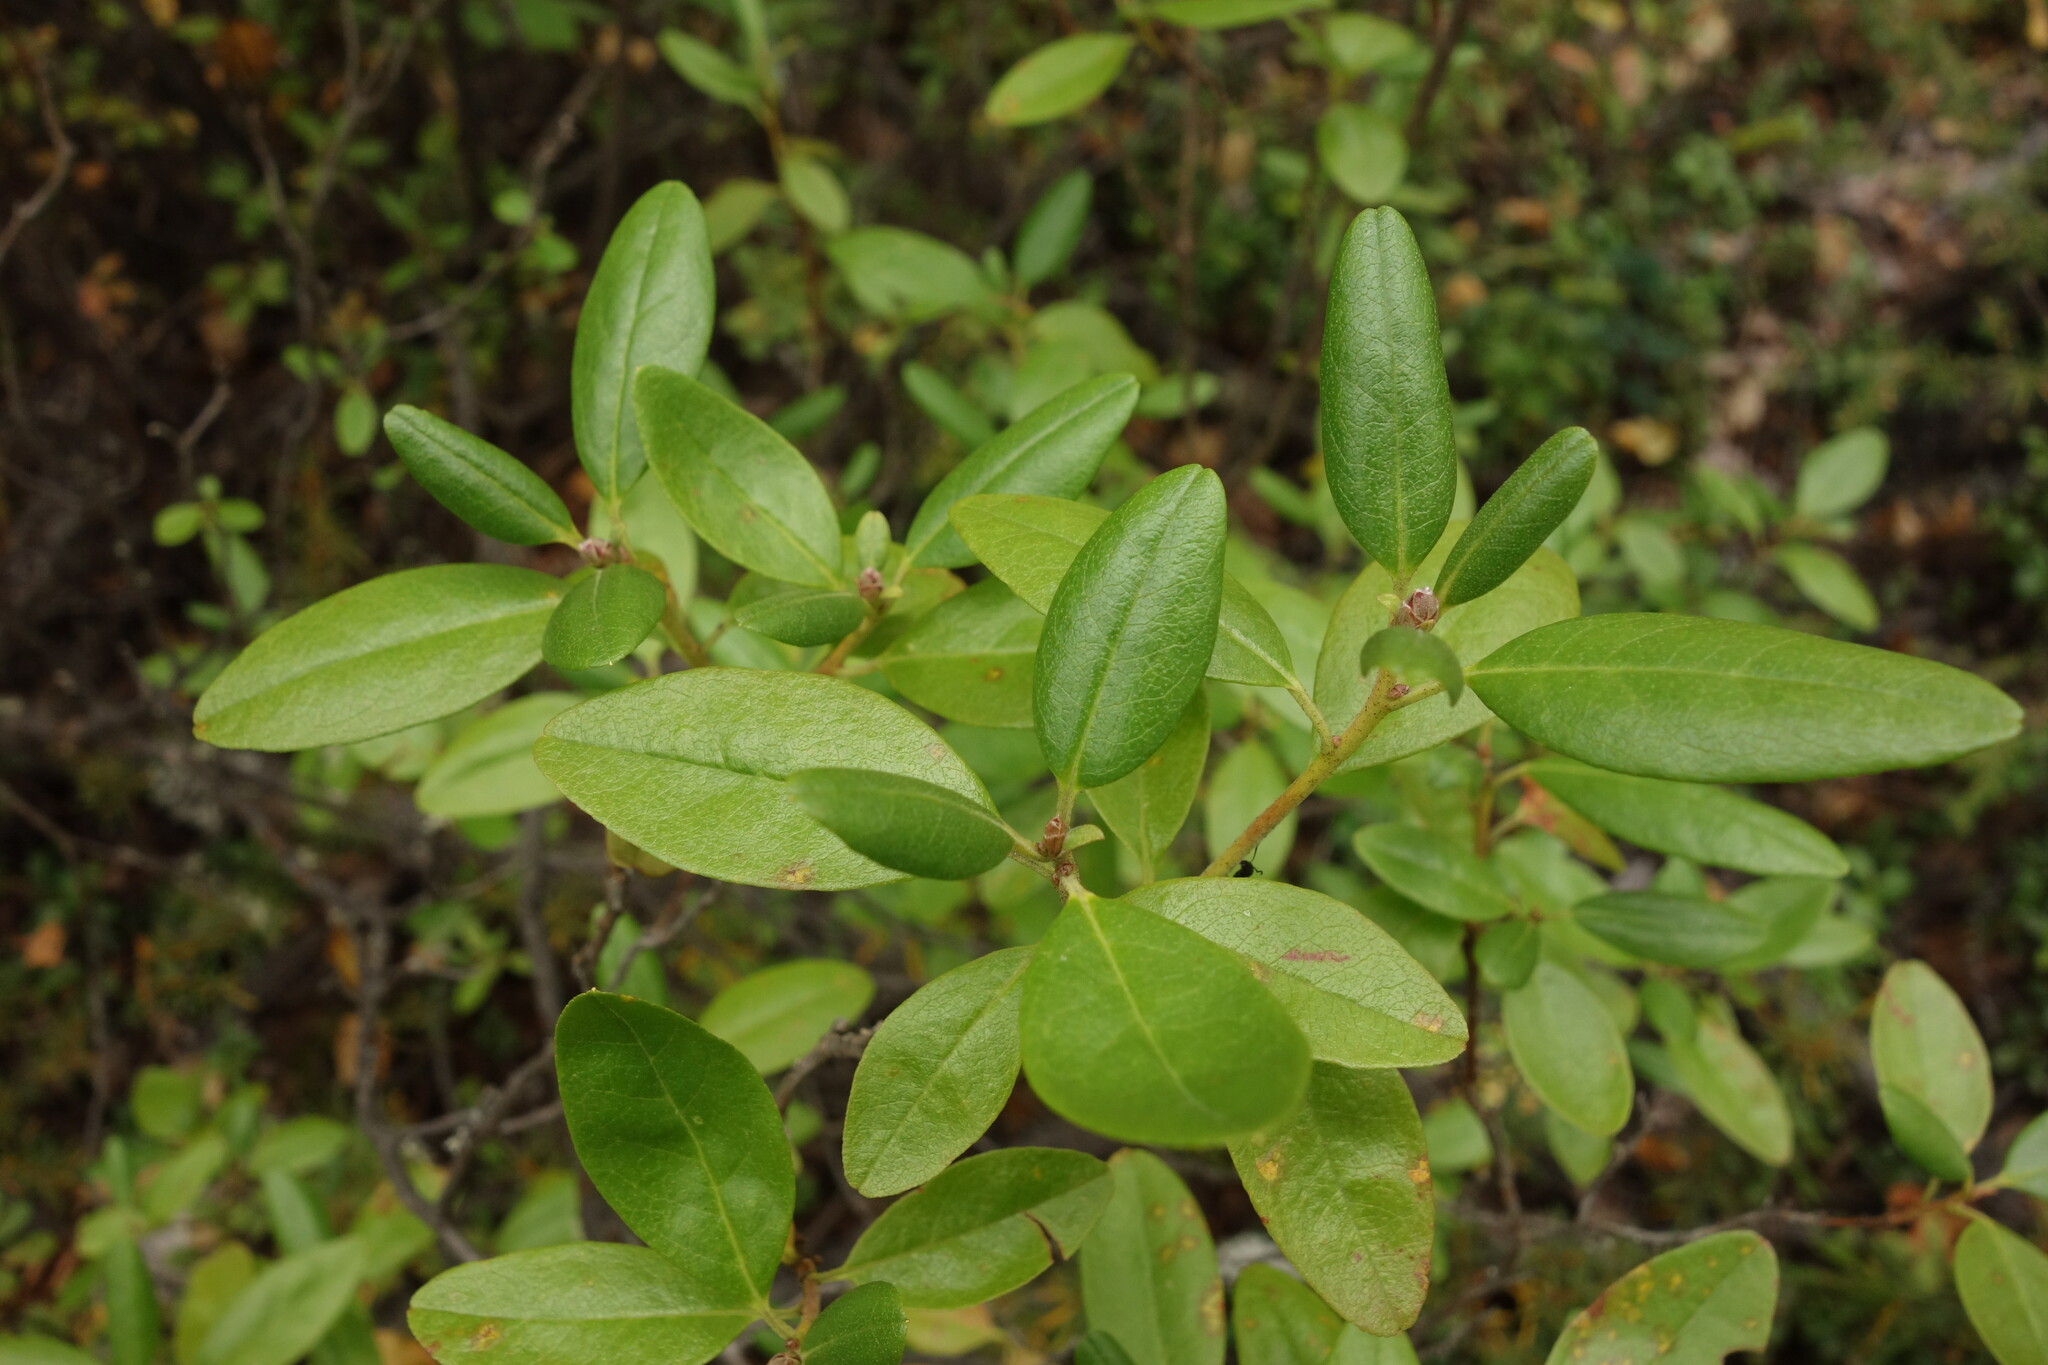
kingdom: Plantae
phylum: Tracheophyta
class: Magnoliopsida
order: Ericales
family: Ericaceae
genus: Rhododendron
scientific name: Rhododendron dauricum
